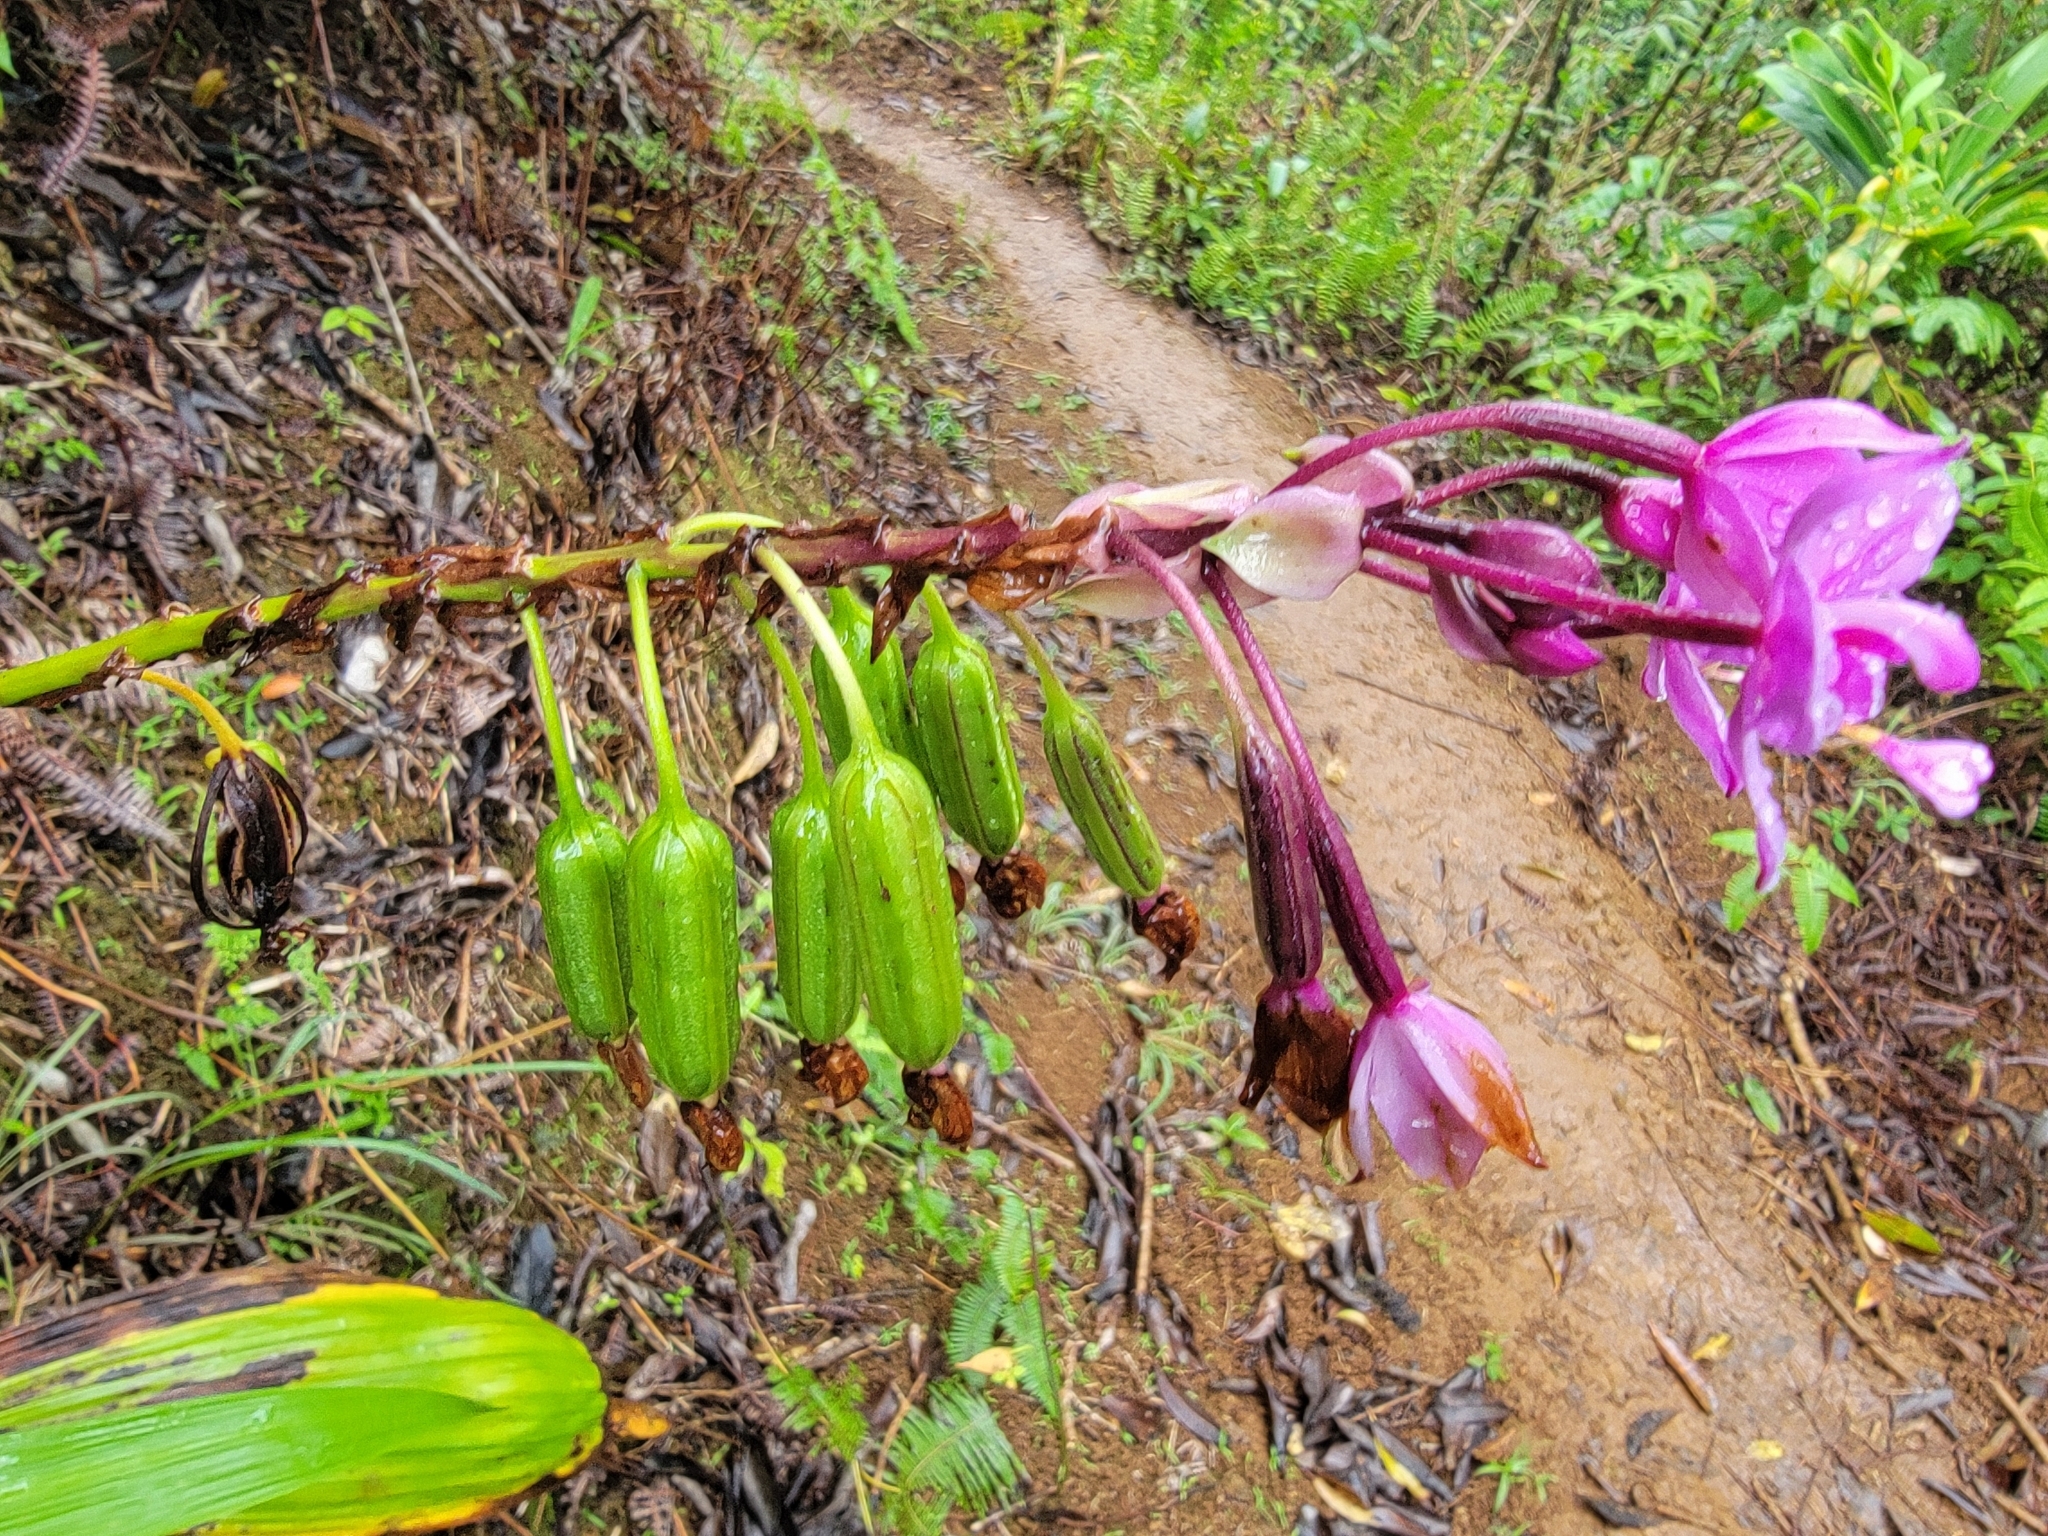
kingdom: Plantae
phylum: Tracheophyta
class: Liliopsida
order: Asparagales
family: Orchidaceae
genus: Spathoglottis
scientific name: Spathoglottis plicata
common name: Philippine ground orchid
